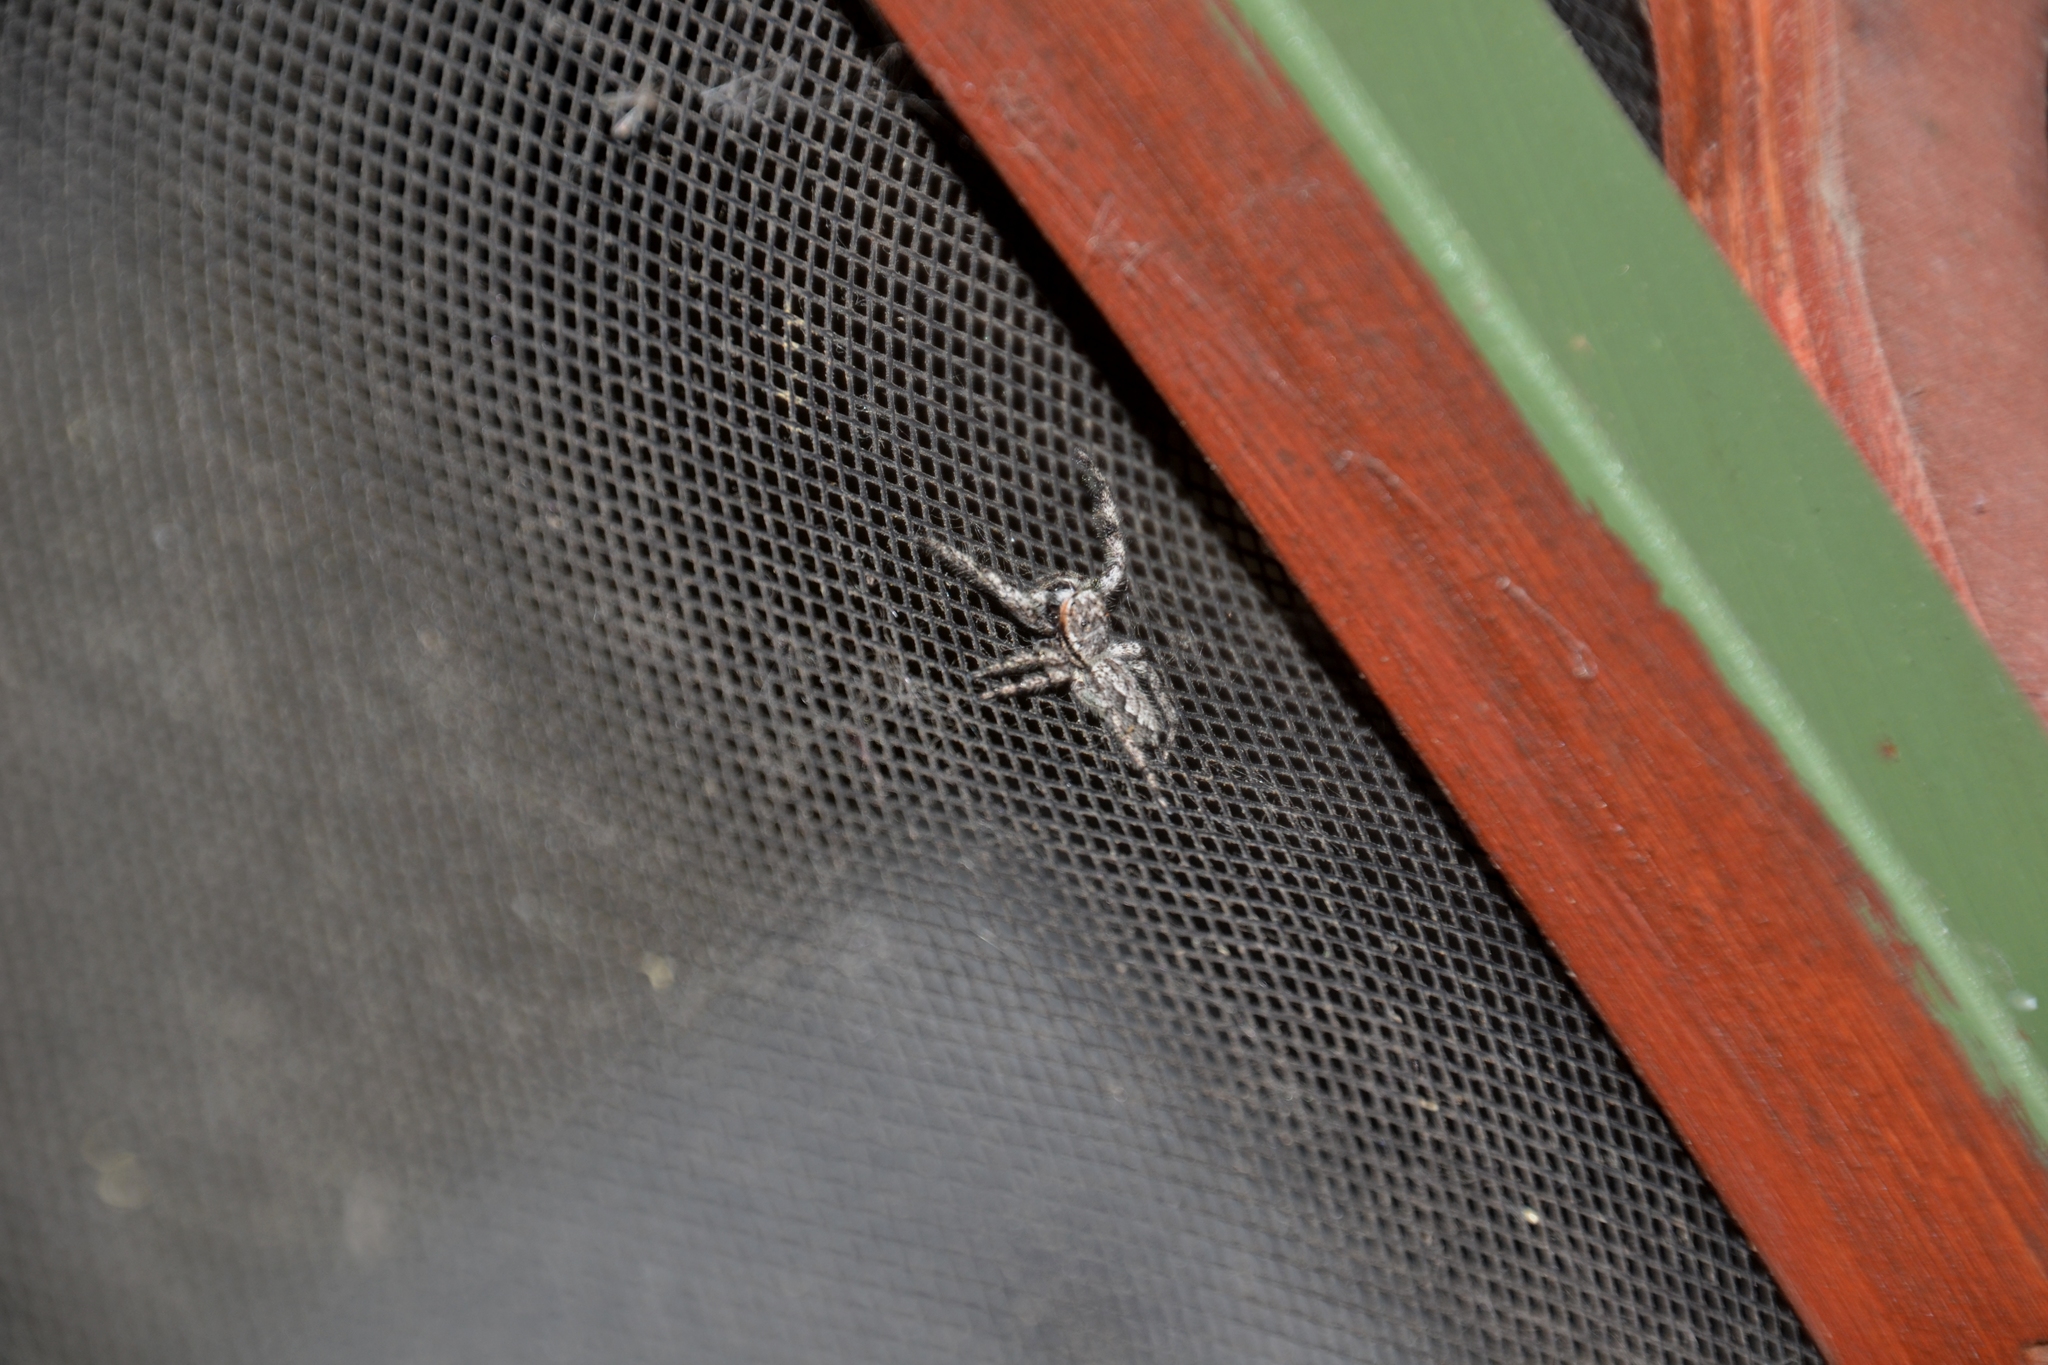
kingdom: Animalia
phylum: Arthropoda
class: Arachnida
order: Araneae
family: Salticidae
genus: Platycryptus
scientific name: Platycryptus undatus
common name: Tan jumping spider
